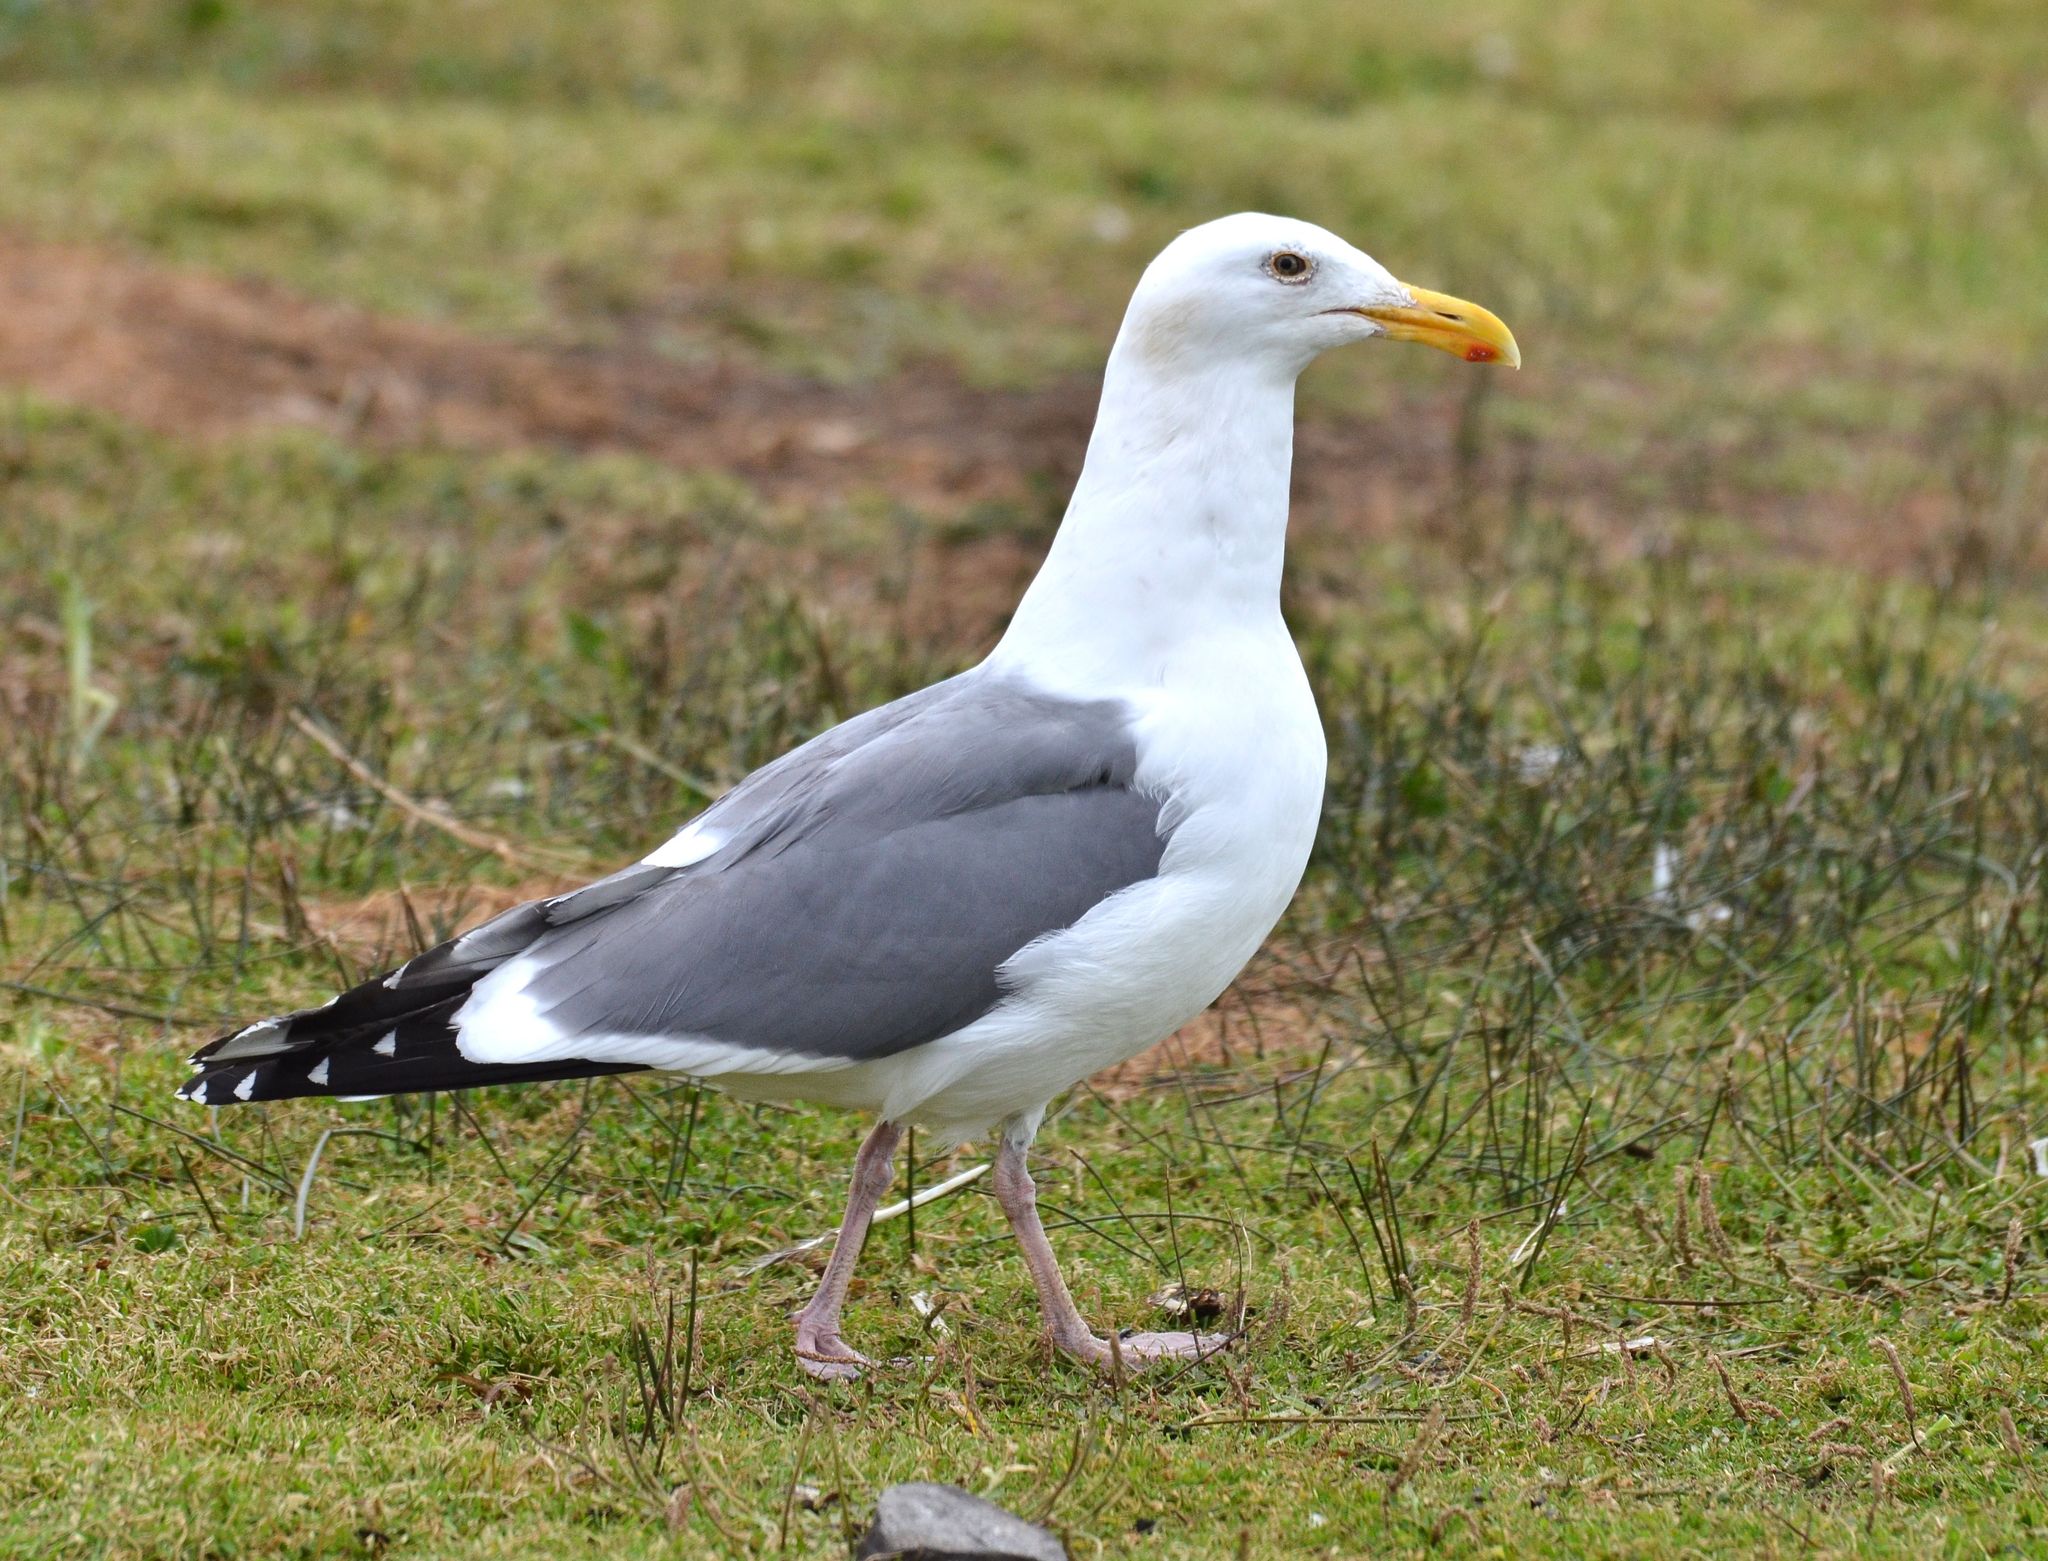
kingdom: Animalia
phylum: Chordata
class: Aves
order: Charadriiformes
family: Laridae
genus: Larus
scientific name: Larus occidentalis
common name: Western gull
